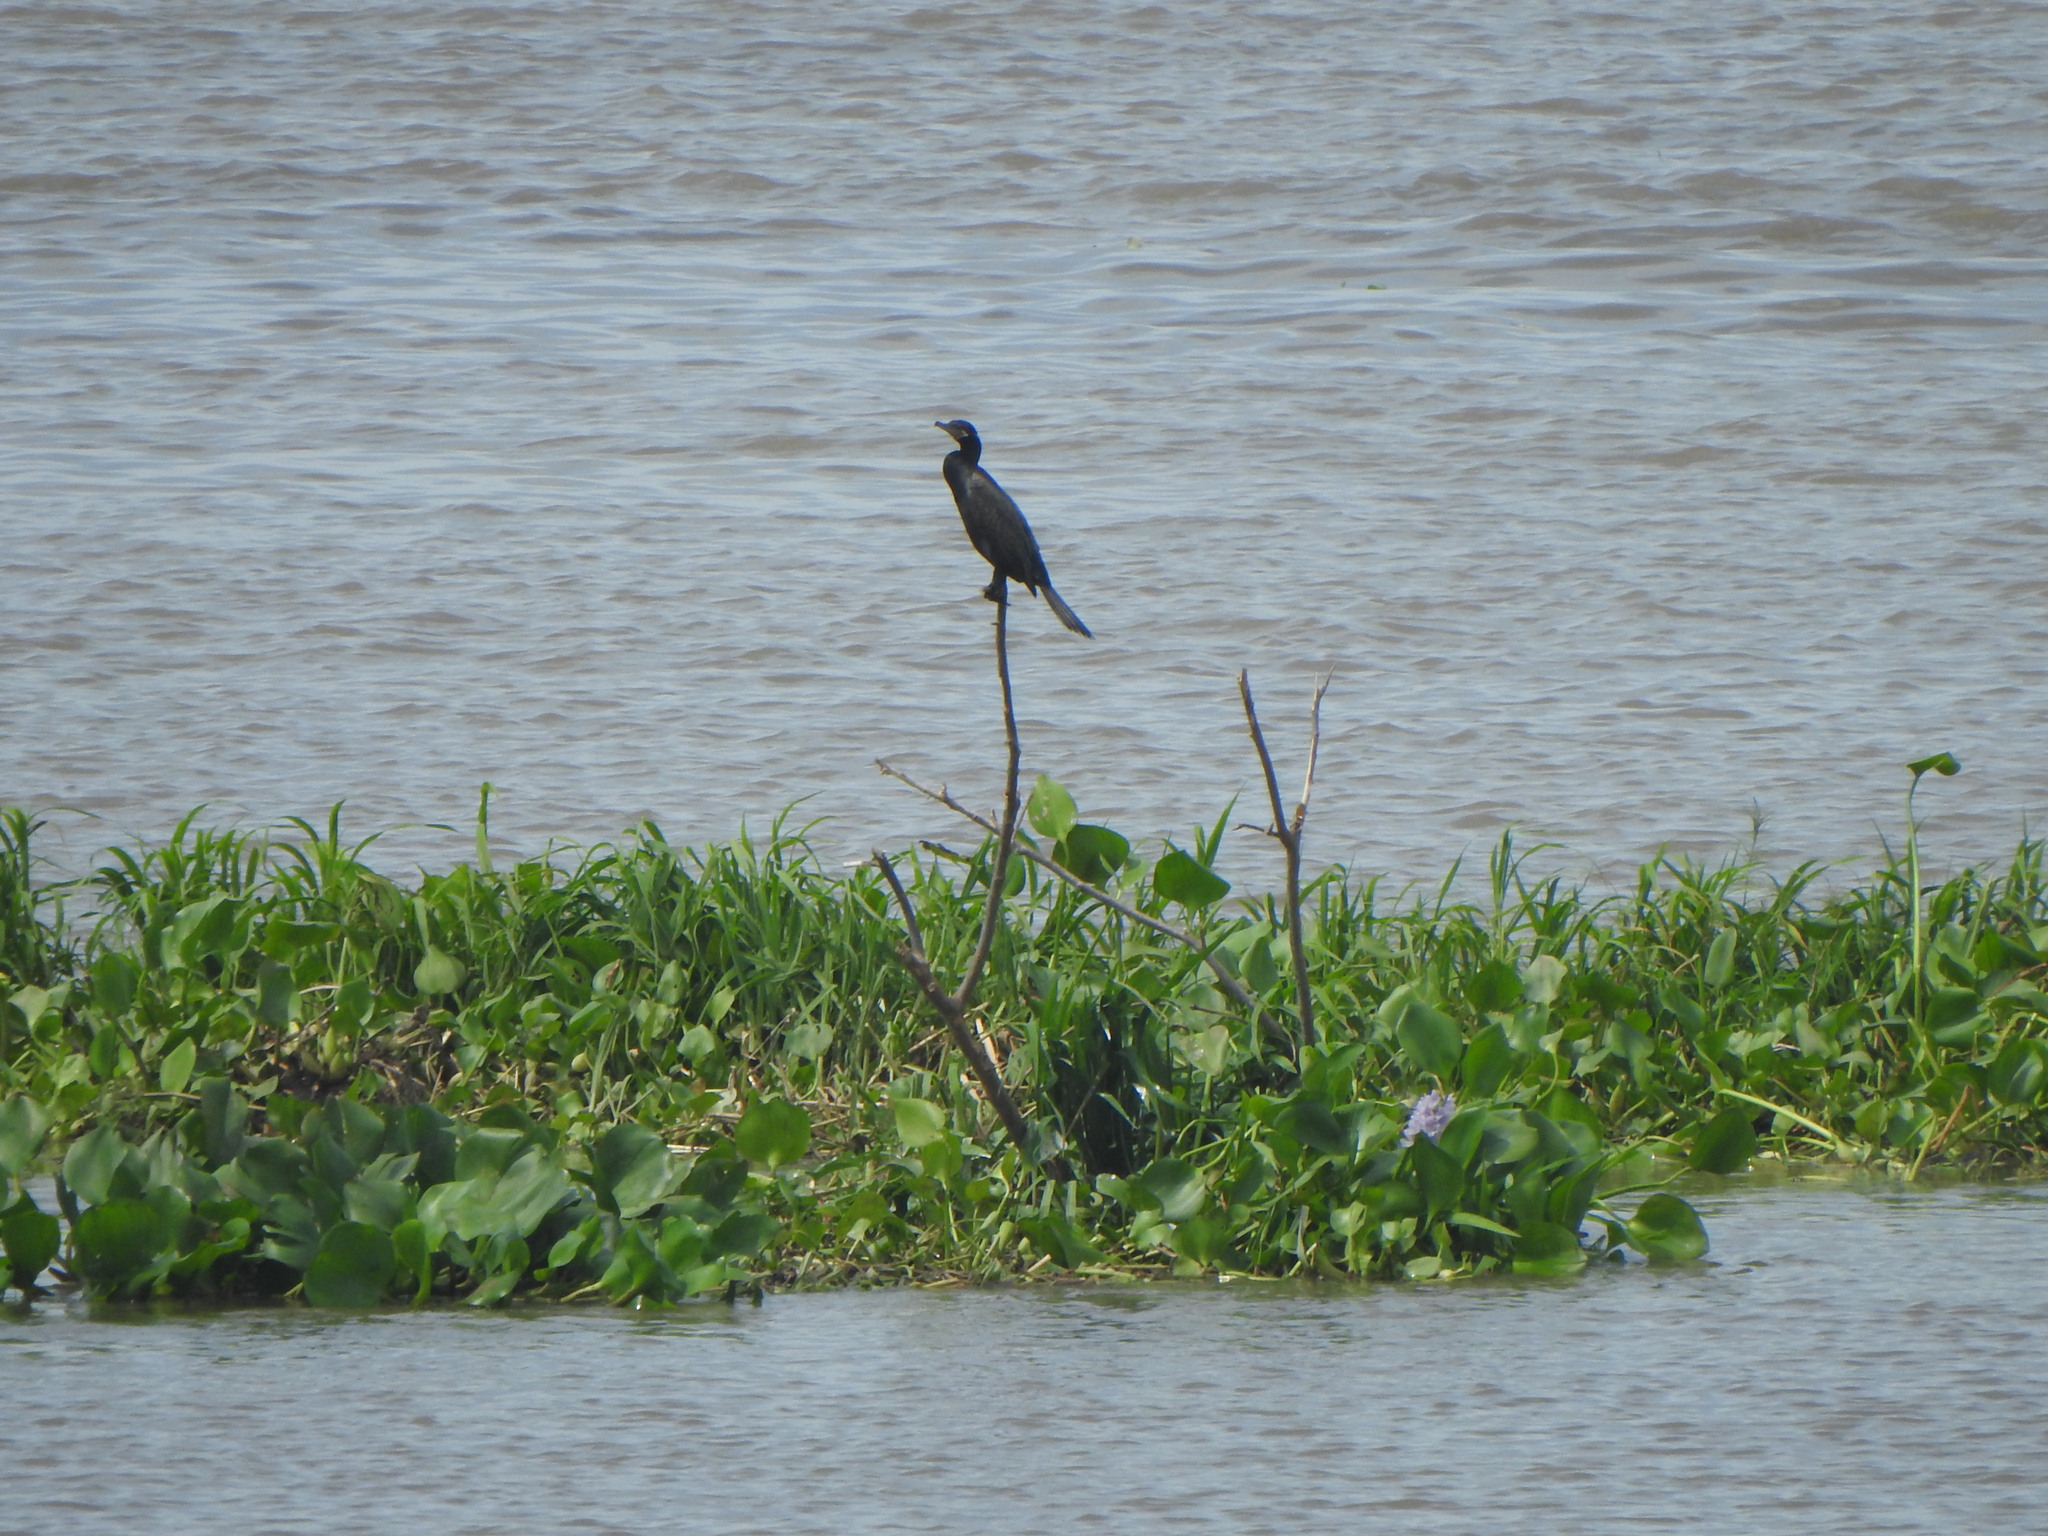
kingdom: Animalia
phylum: Chordata
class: Aves
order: Suliformes
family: Phalacrocoracidae
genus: Phalacrocorax
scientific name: Phalacrocorax brasilianus
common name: Neotropic cormorant
